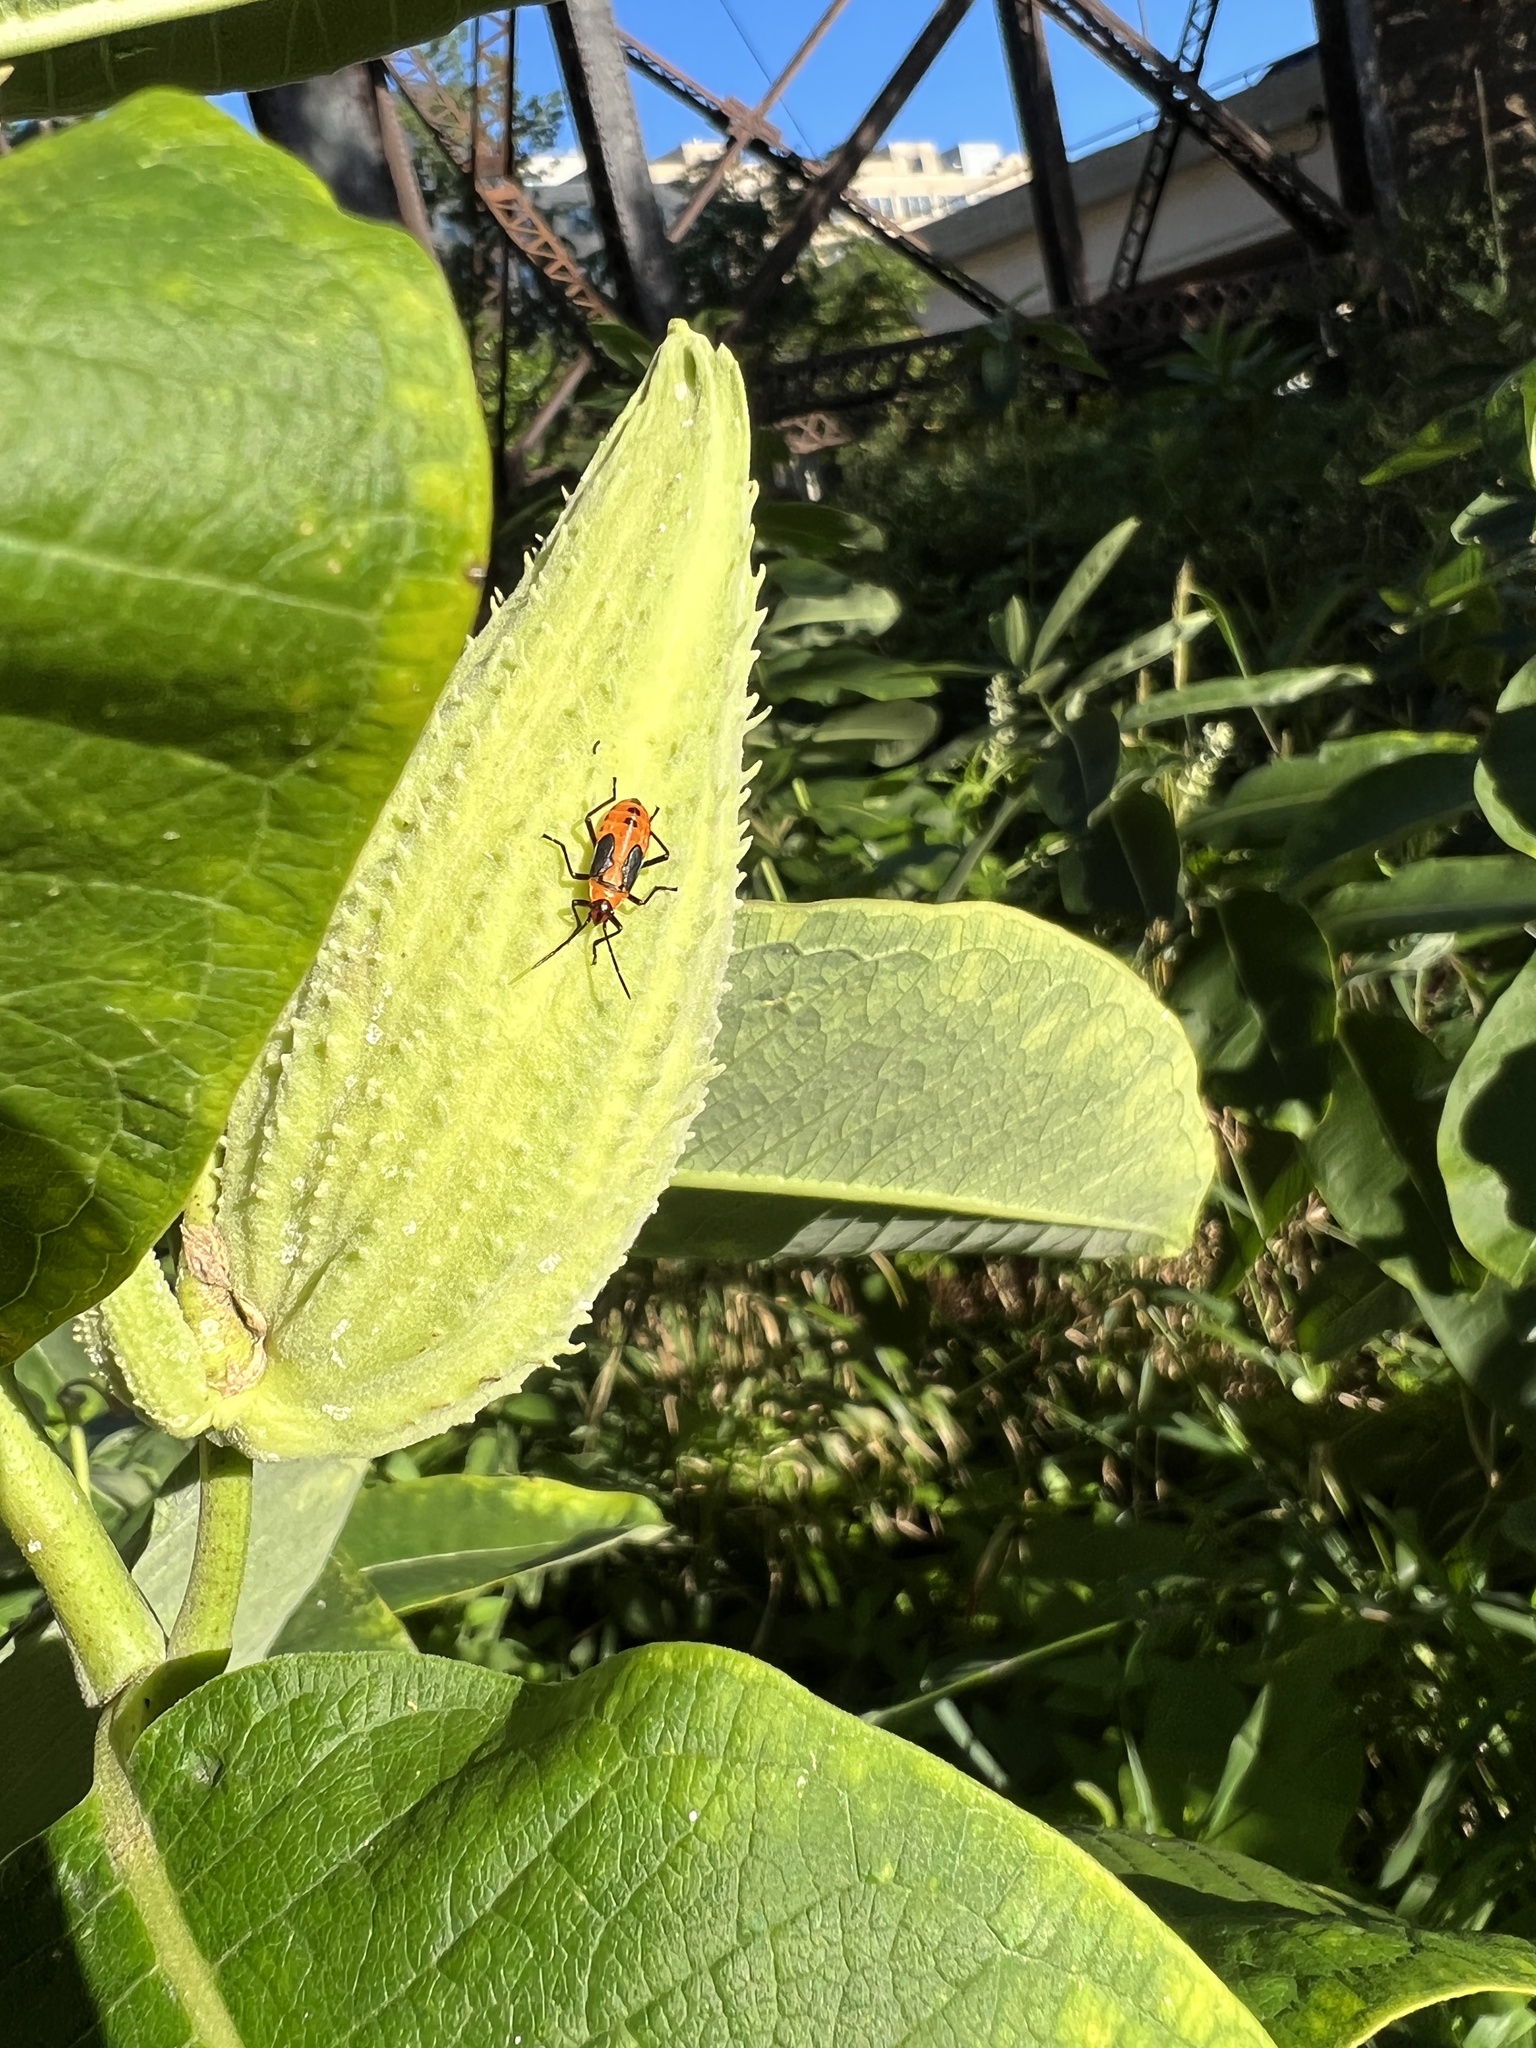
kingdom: Animalia
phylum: Arthropoda
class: Insecta
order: Hemiptera
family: Lygaeidae
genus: Oncopeltus
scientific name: Oncopeltus fasciatus
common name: Large milkweed bug
